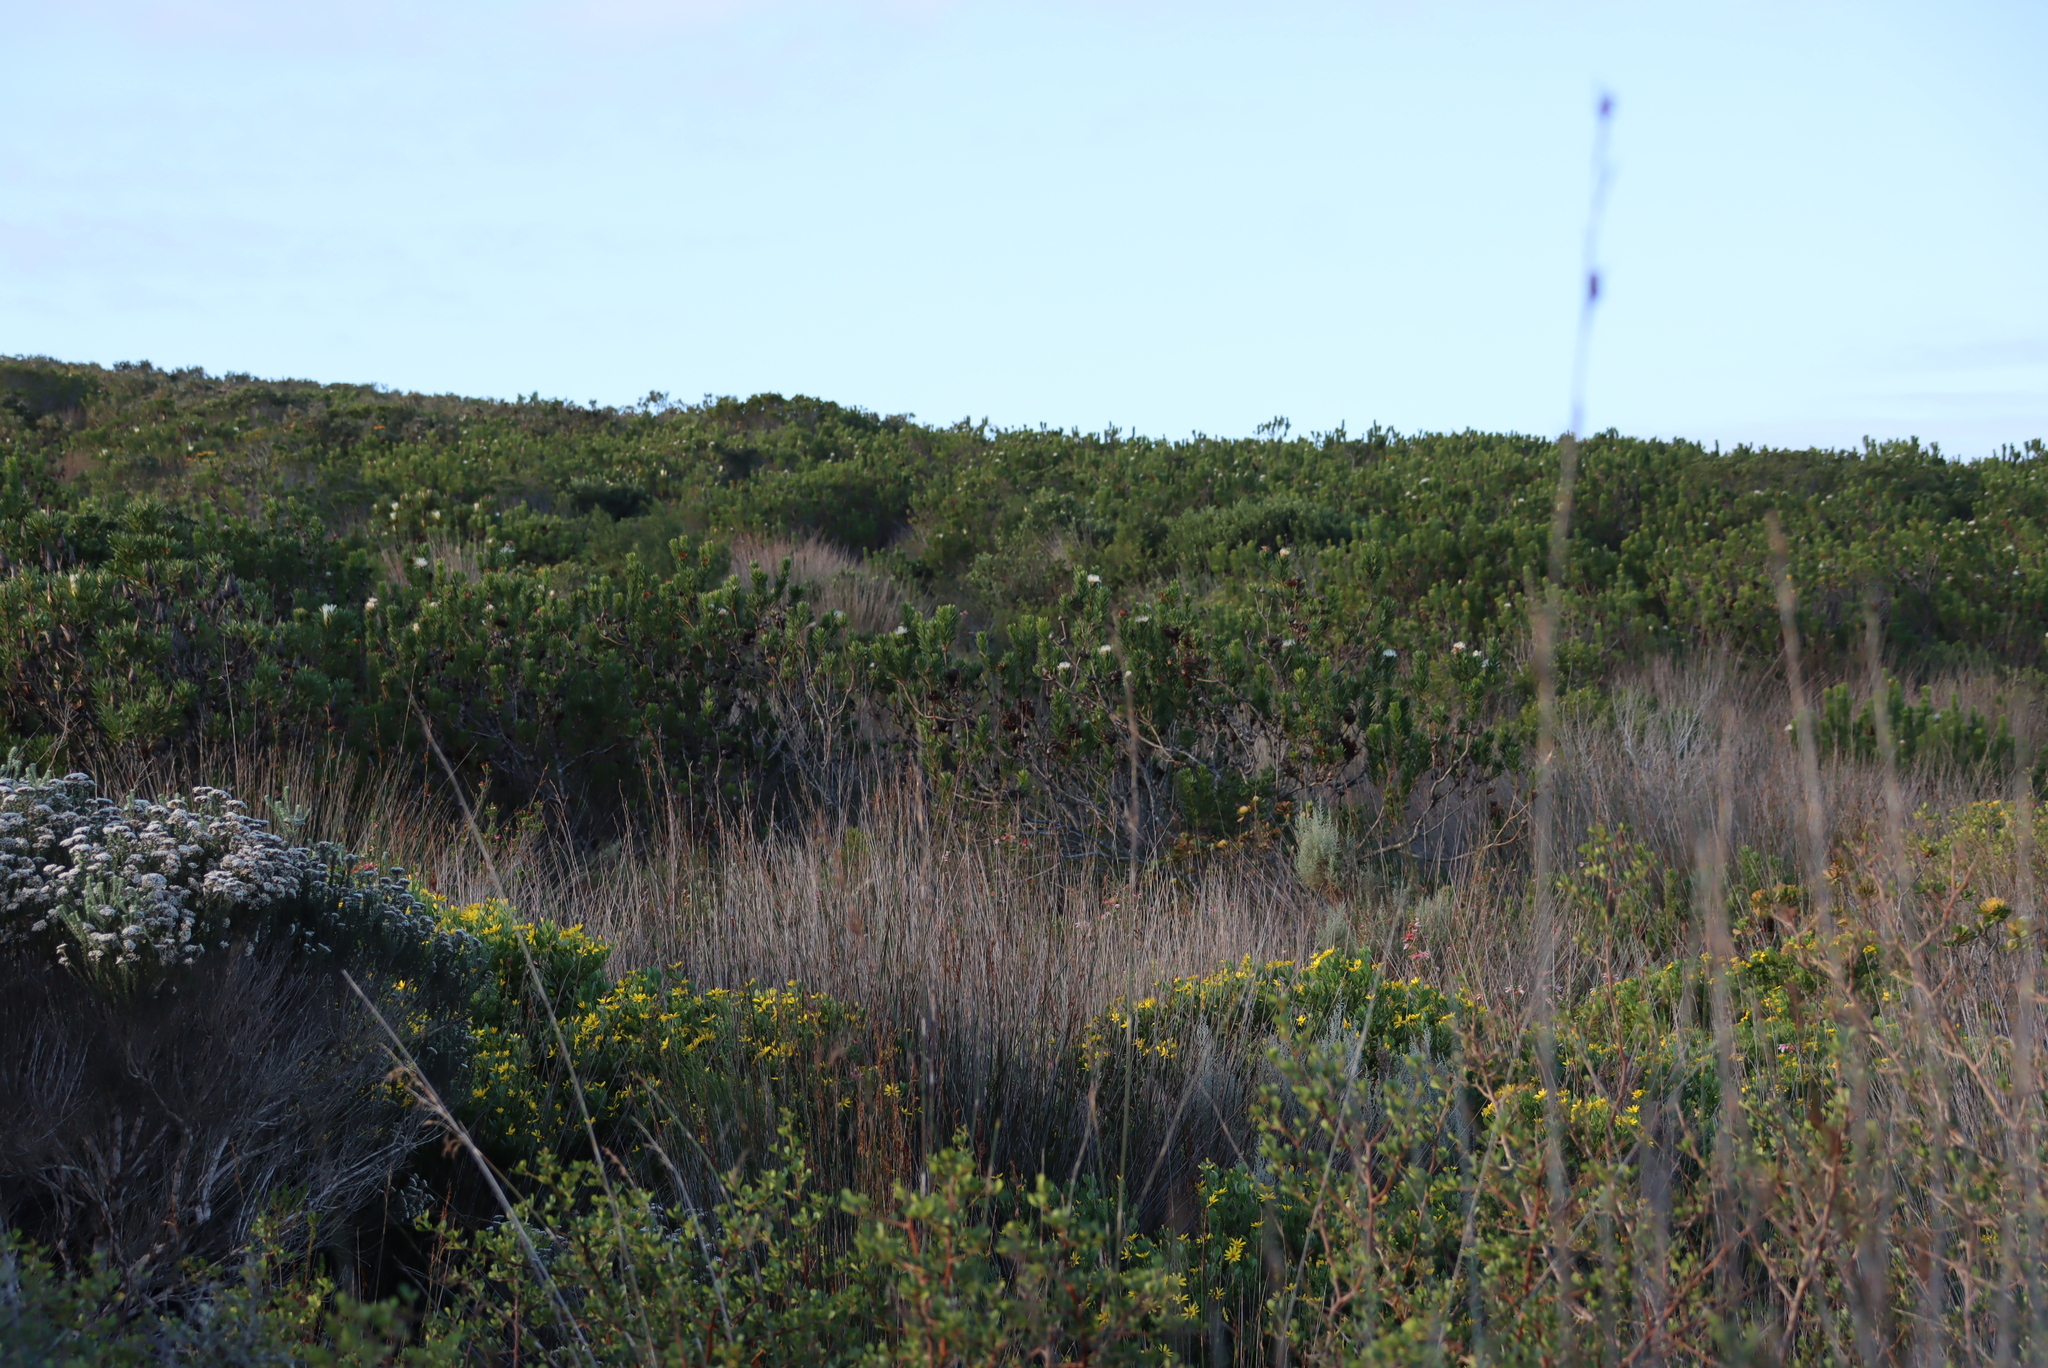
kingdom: Plantae
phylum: Tracheophyta
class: Magnoliopsida
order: Proteales
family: Proteaceae
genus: Protea
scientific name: Protea lanceolata
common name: Lance-leaved protea
